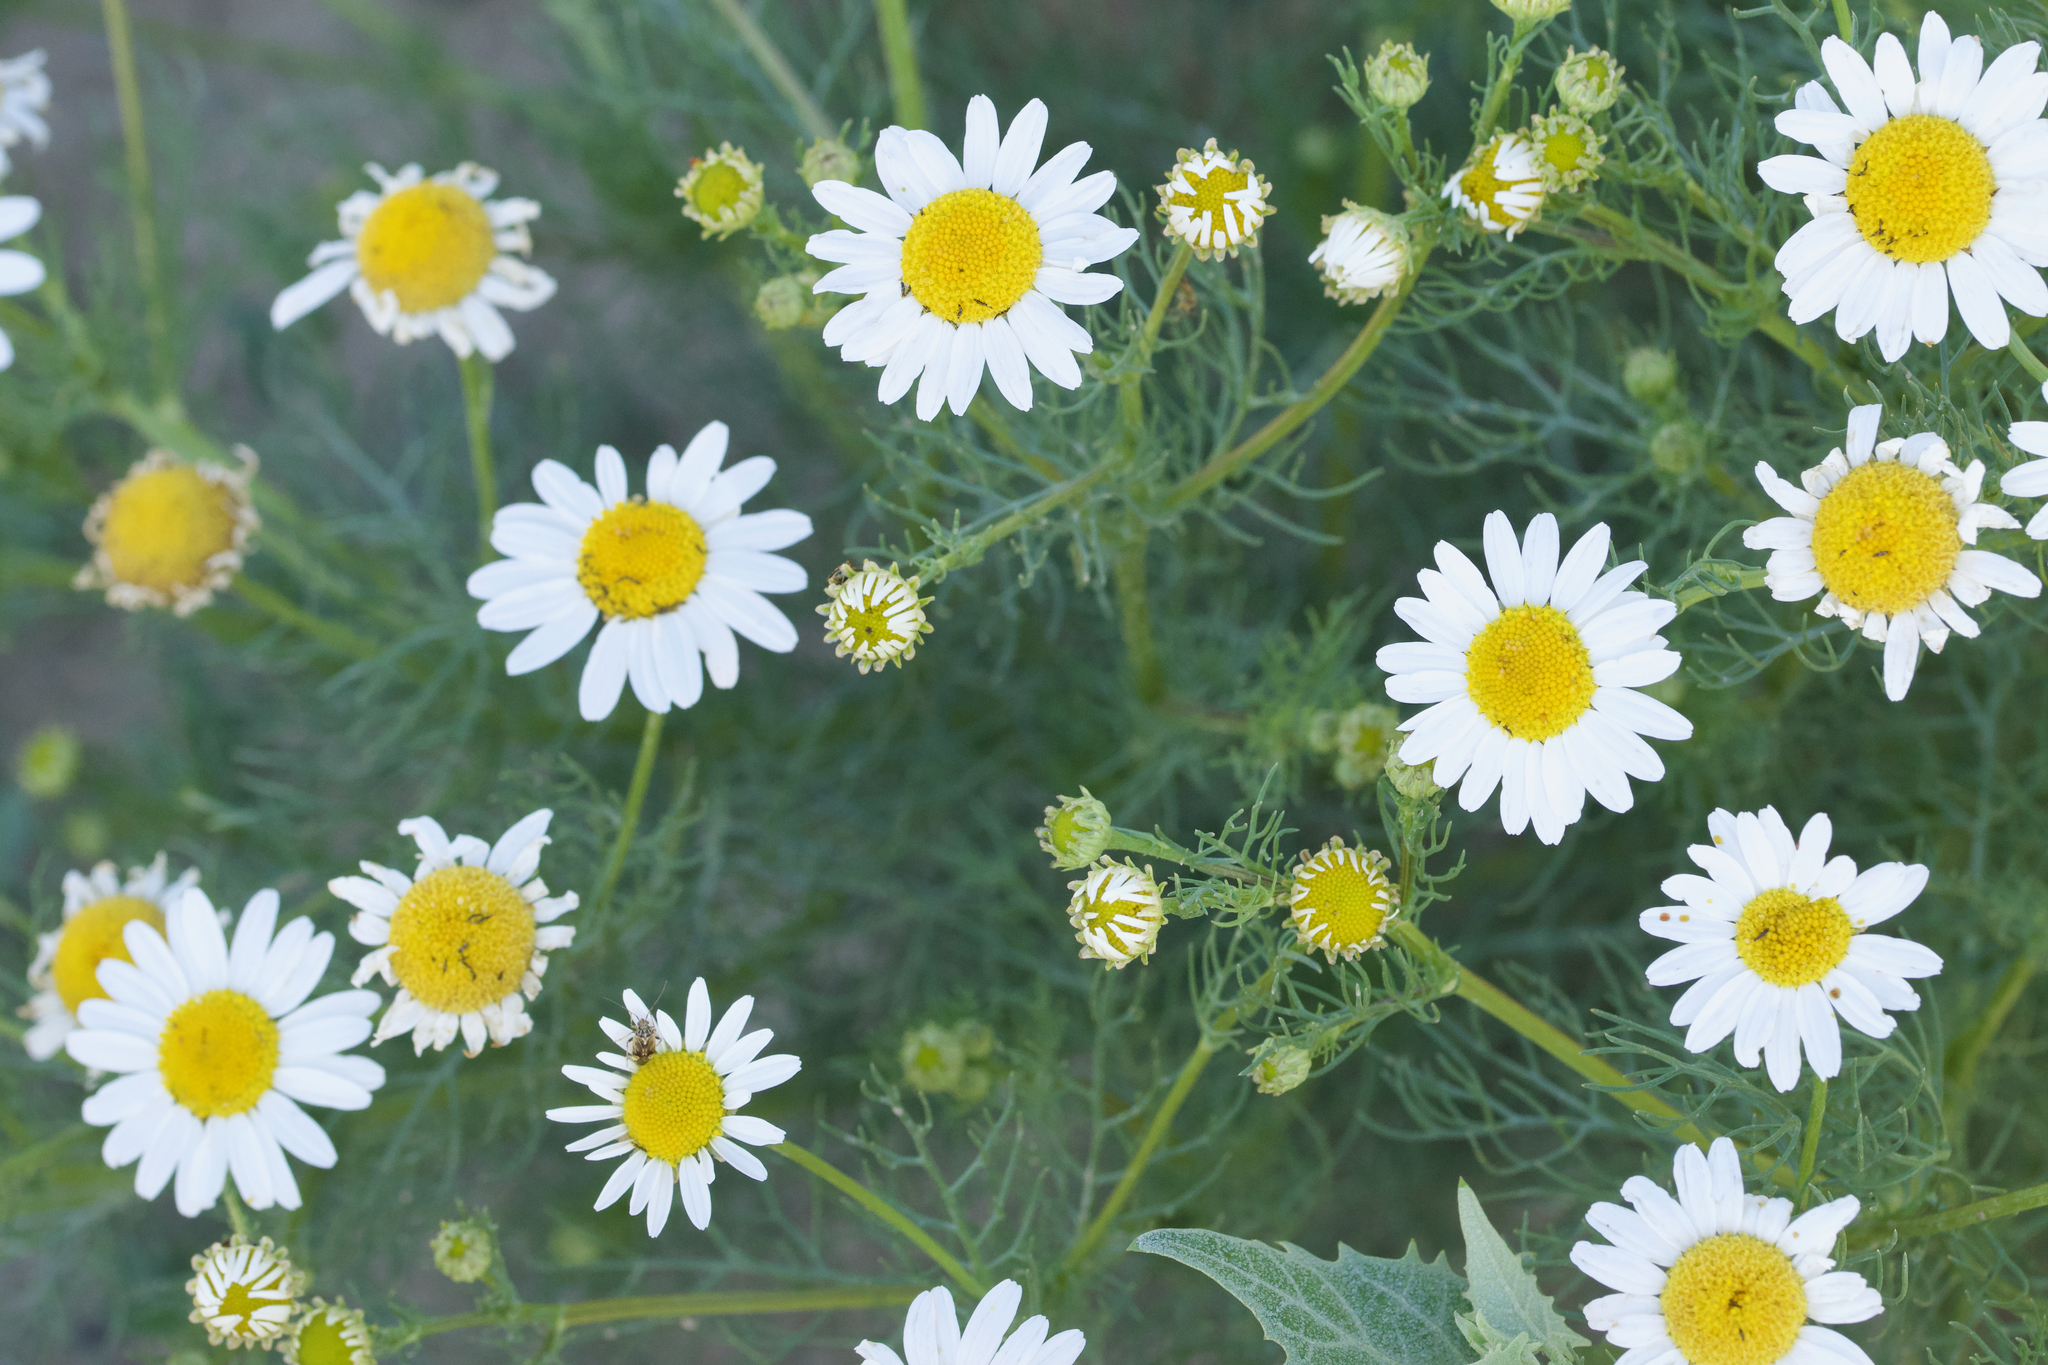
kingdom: Plantae
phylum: Tracheophyta
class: Magnoliopsida
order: Asterales
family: Asteraceae
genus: Tripleurospermum
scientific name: Tripleurospermum inodorum
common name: Scentless mayweed
